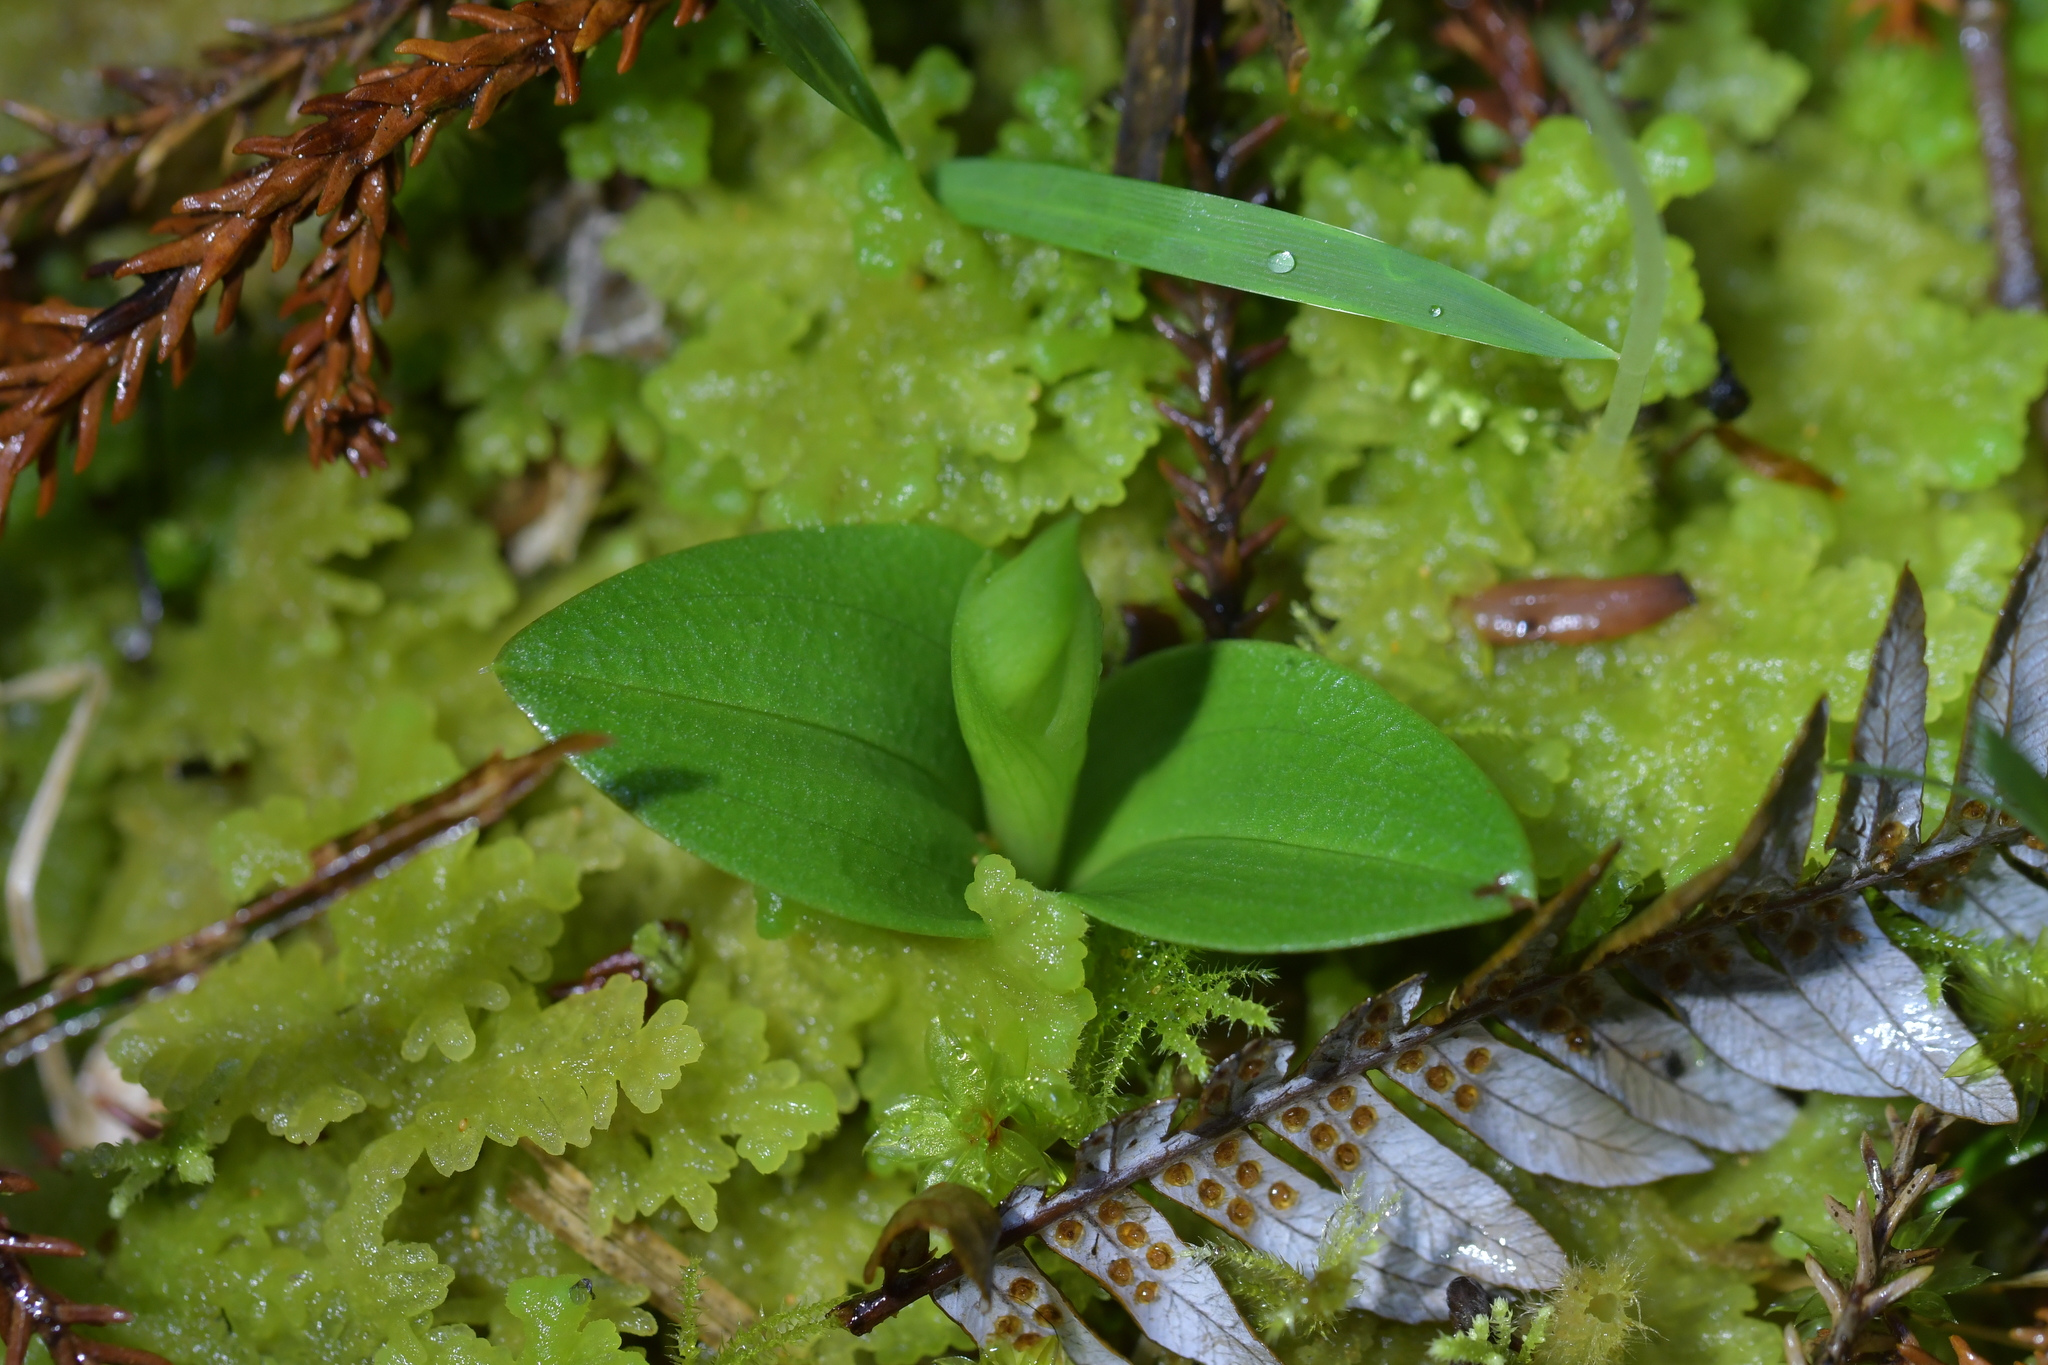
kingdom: Plantae
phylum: Tracheophyta
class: Liliopsida
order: Asparagales
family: Orchidaceae
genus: Chiloglottis
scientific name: Chiloglottis cornuta
